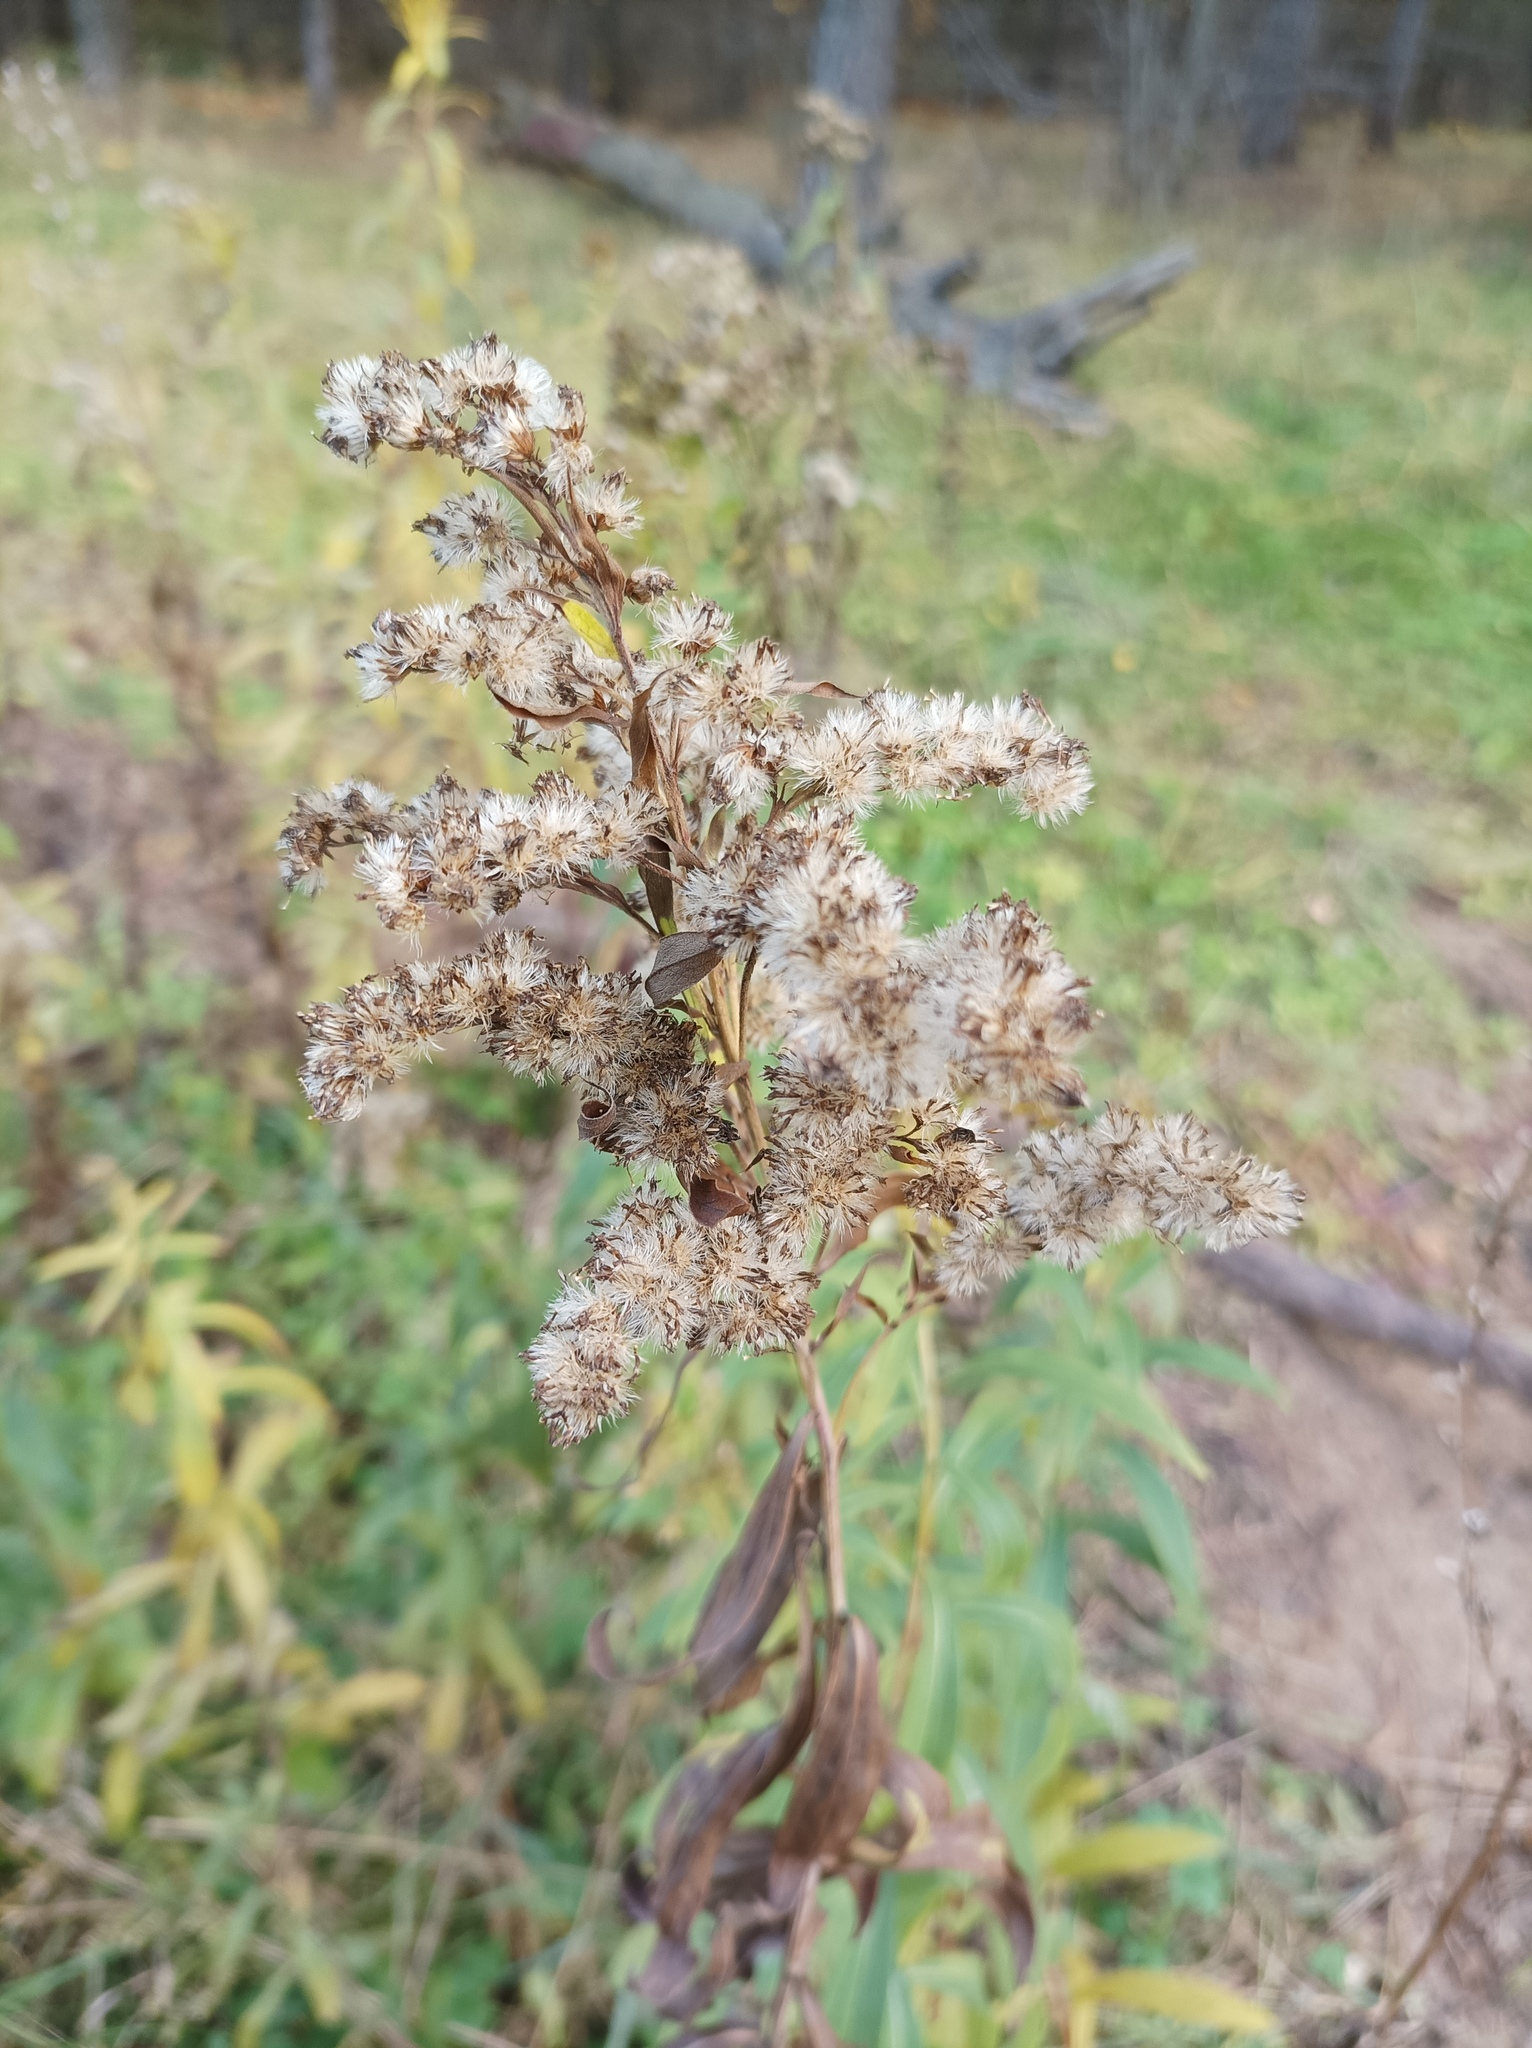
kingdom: Plantae
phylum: Tracheophyta
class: Magnoliopsida
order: Asterales
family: Asteraceae
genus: Solidago
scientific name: Solidago gigantea
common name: Giant goldenrod
